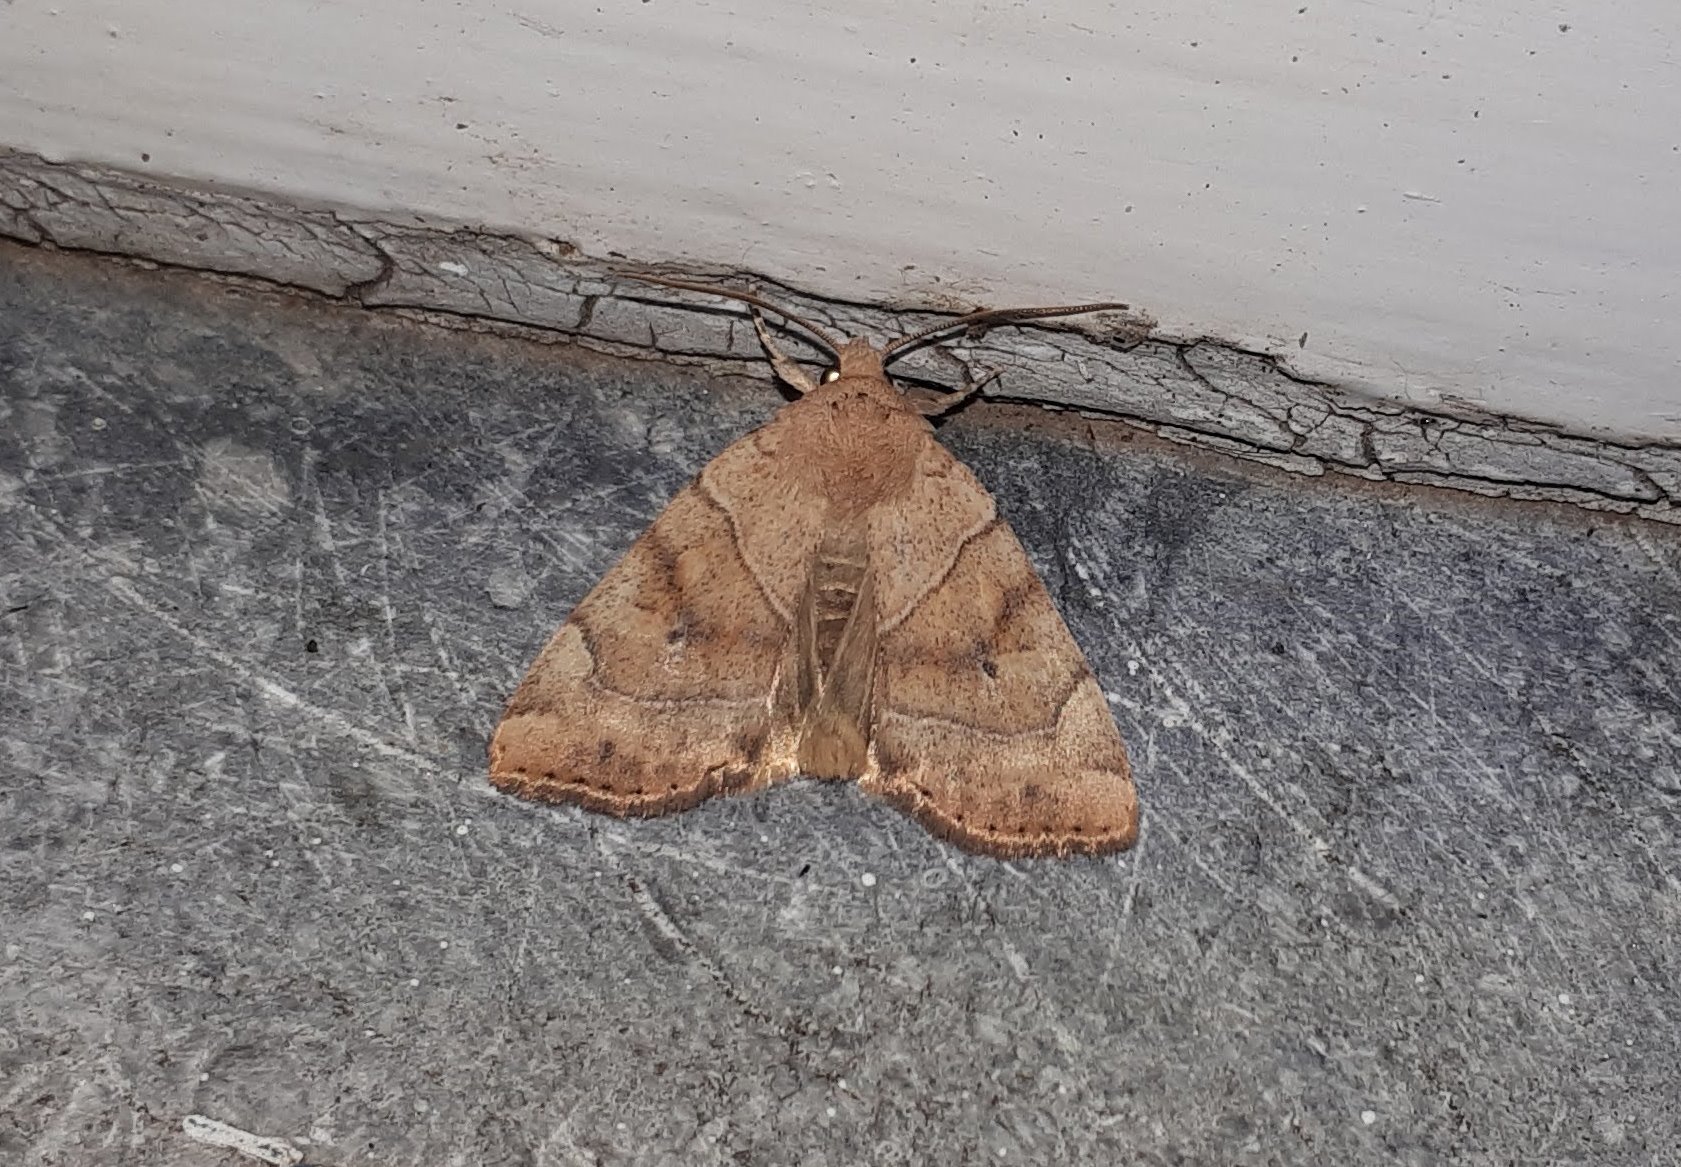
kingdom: Animalia
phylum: Arthropoda
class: Insecta
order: Lepidoptera
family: Noctuidae
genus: Cosmia
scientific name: Cosmia trapezina
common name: Dun-bar
